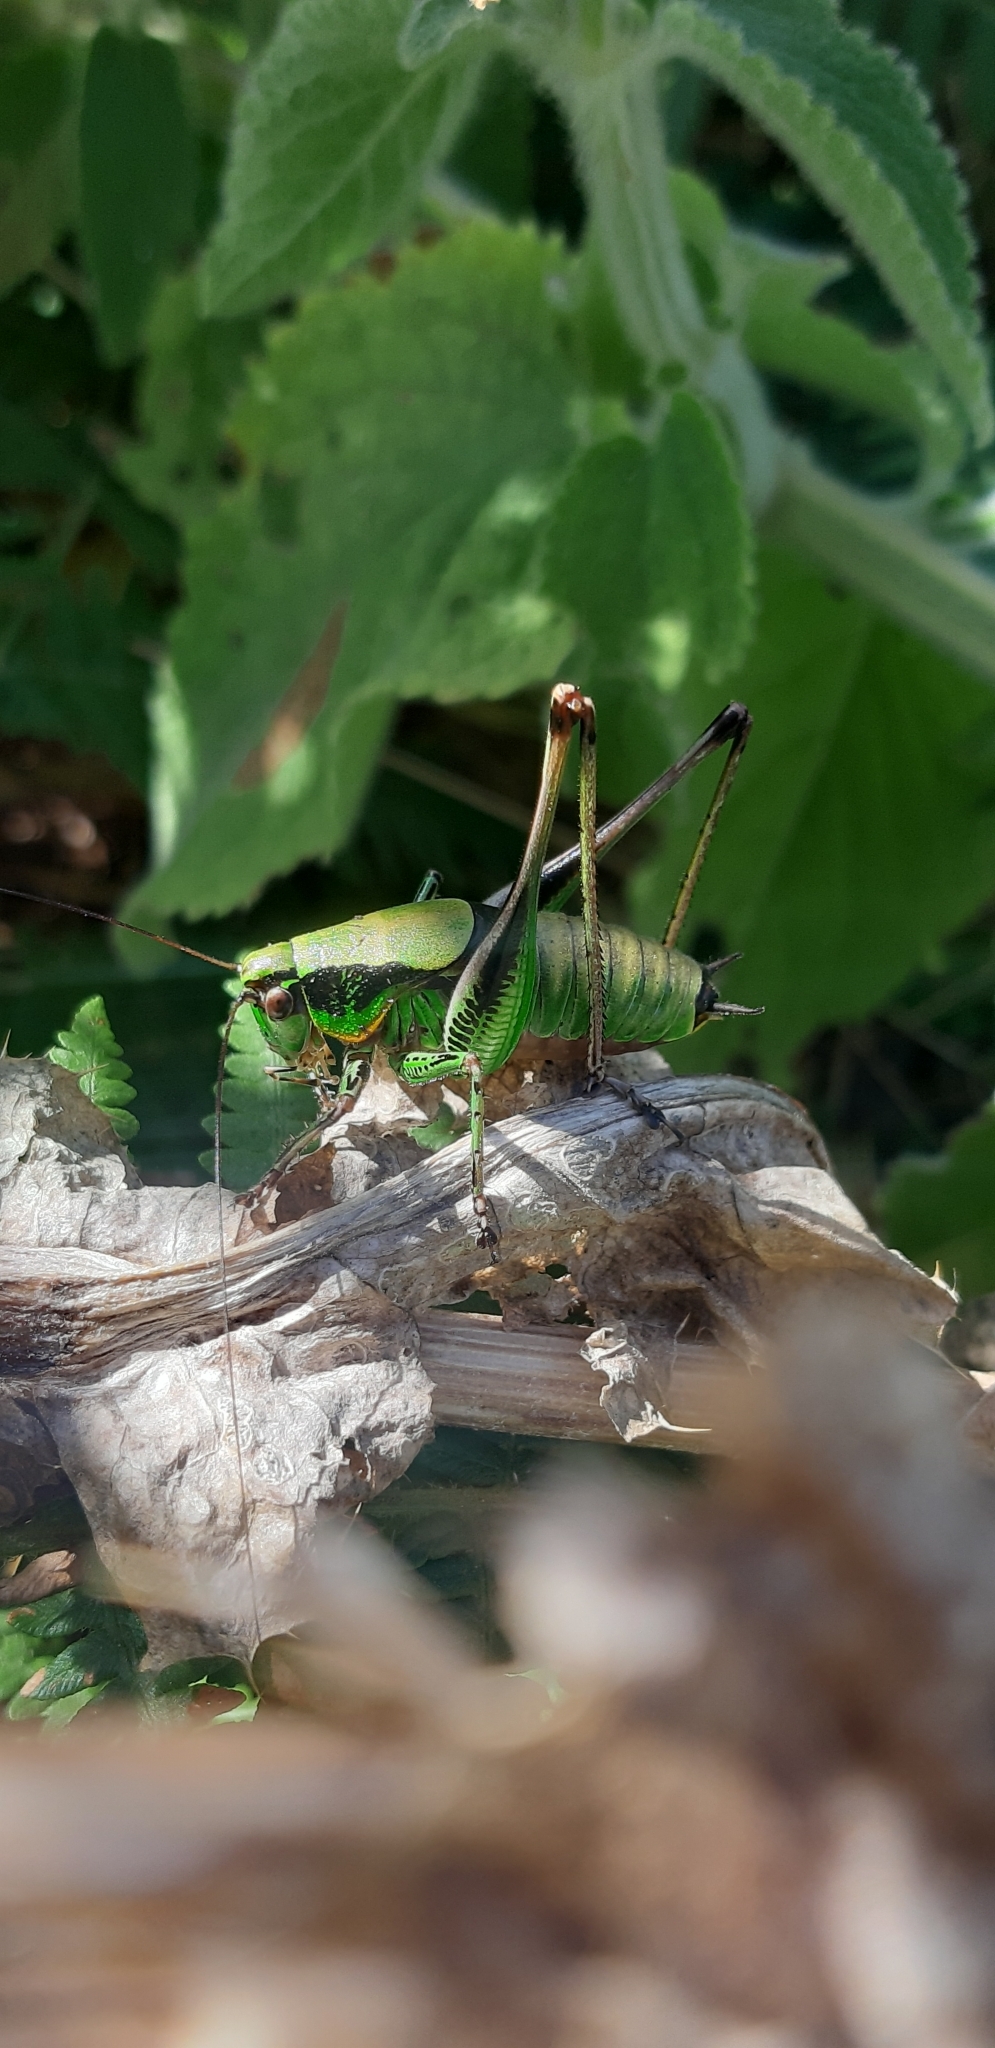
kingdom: Animalia
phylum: Arthropoda
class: Insecta
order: Orthoptera
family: Tettigoniidae
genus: Eupholidoptera
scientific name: Eupholidoptera magnifica
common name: Splendid marbled bush-cricket
